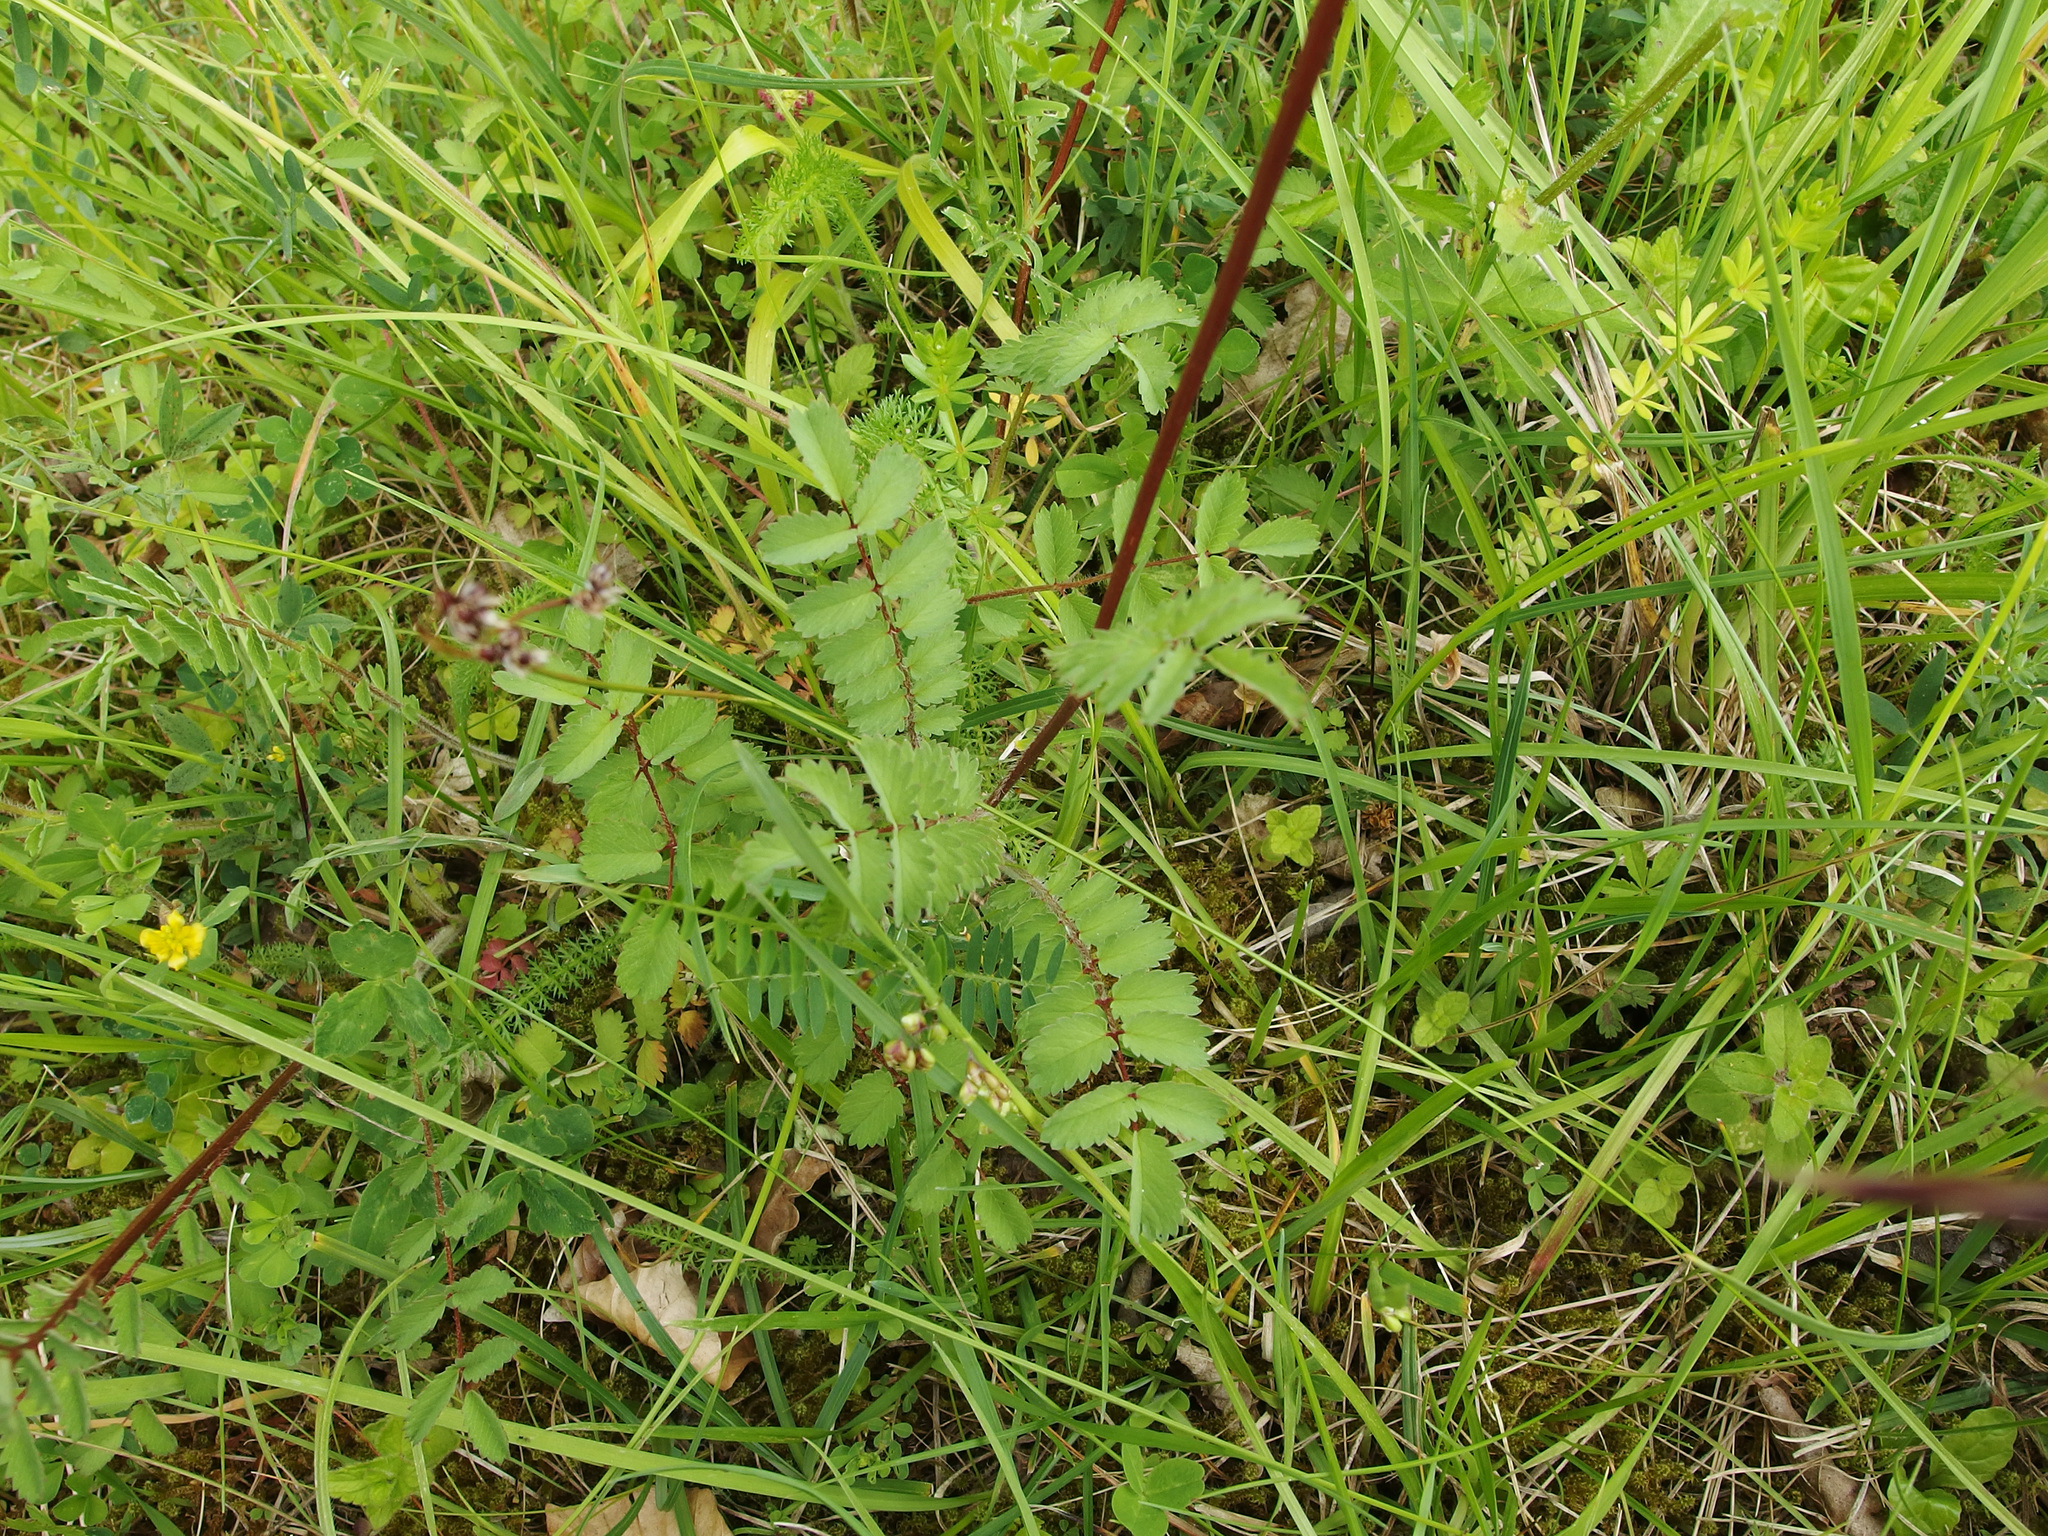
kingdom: Plantae
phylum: Tracheophyta
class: Magnoliopsida
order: Rosales
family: Rosaceae
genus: Poterium
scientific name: Poterium sanguisorba
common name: Salad burnet
